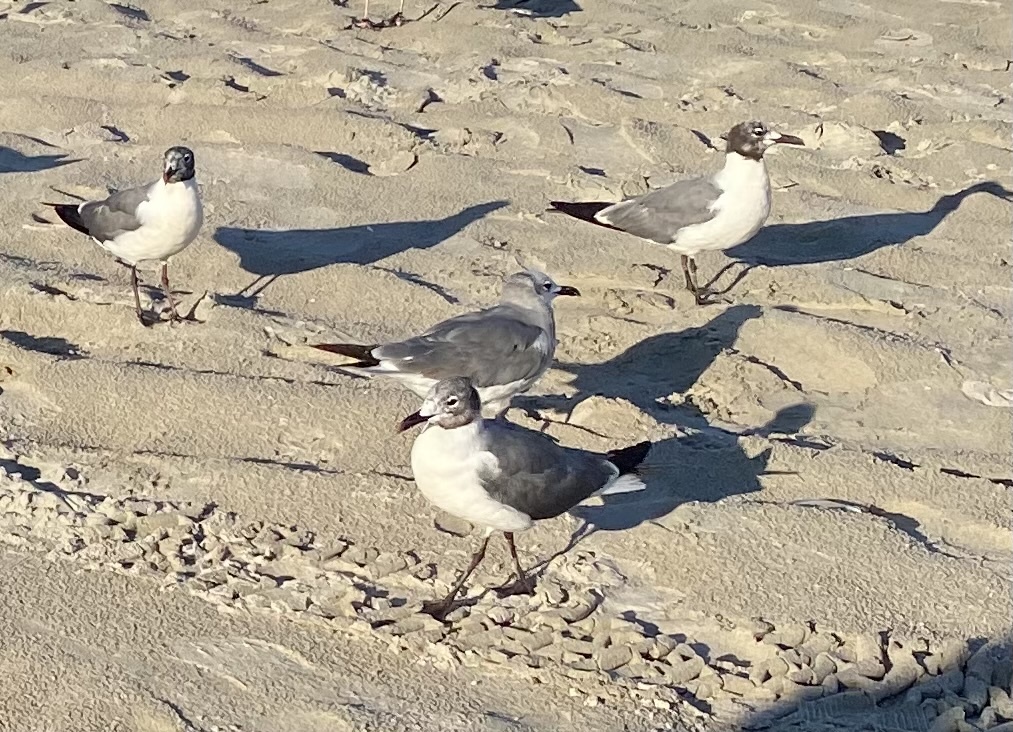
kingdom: Animalia
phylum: Chordata
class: Aves
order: Charadriiformes
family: Laridae
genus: Leucophaeus
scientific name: Leucophaeus atricilla
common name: Laughing gull
